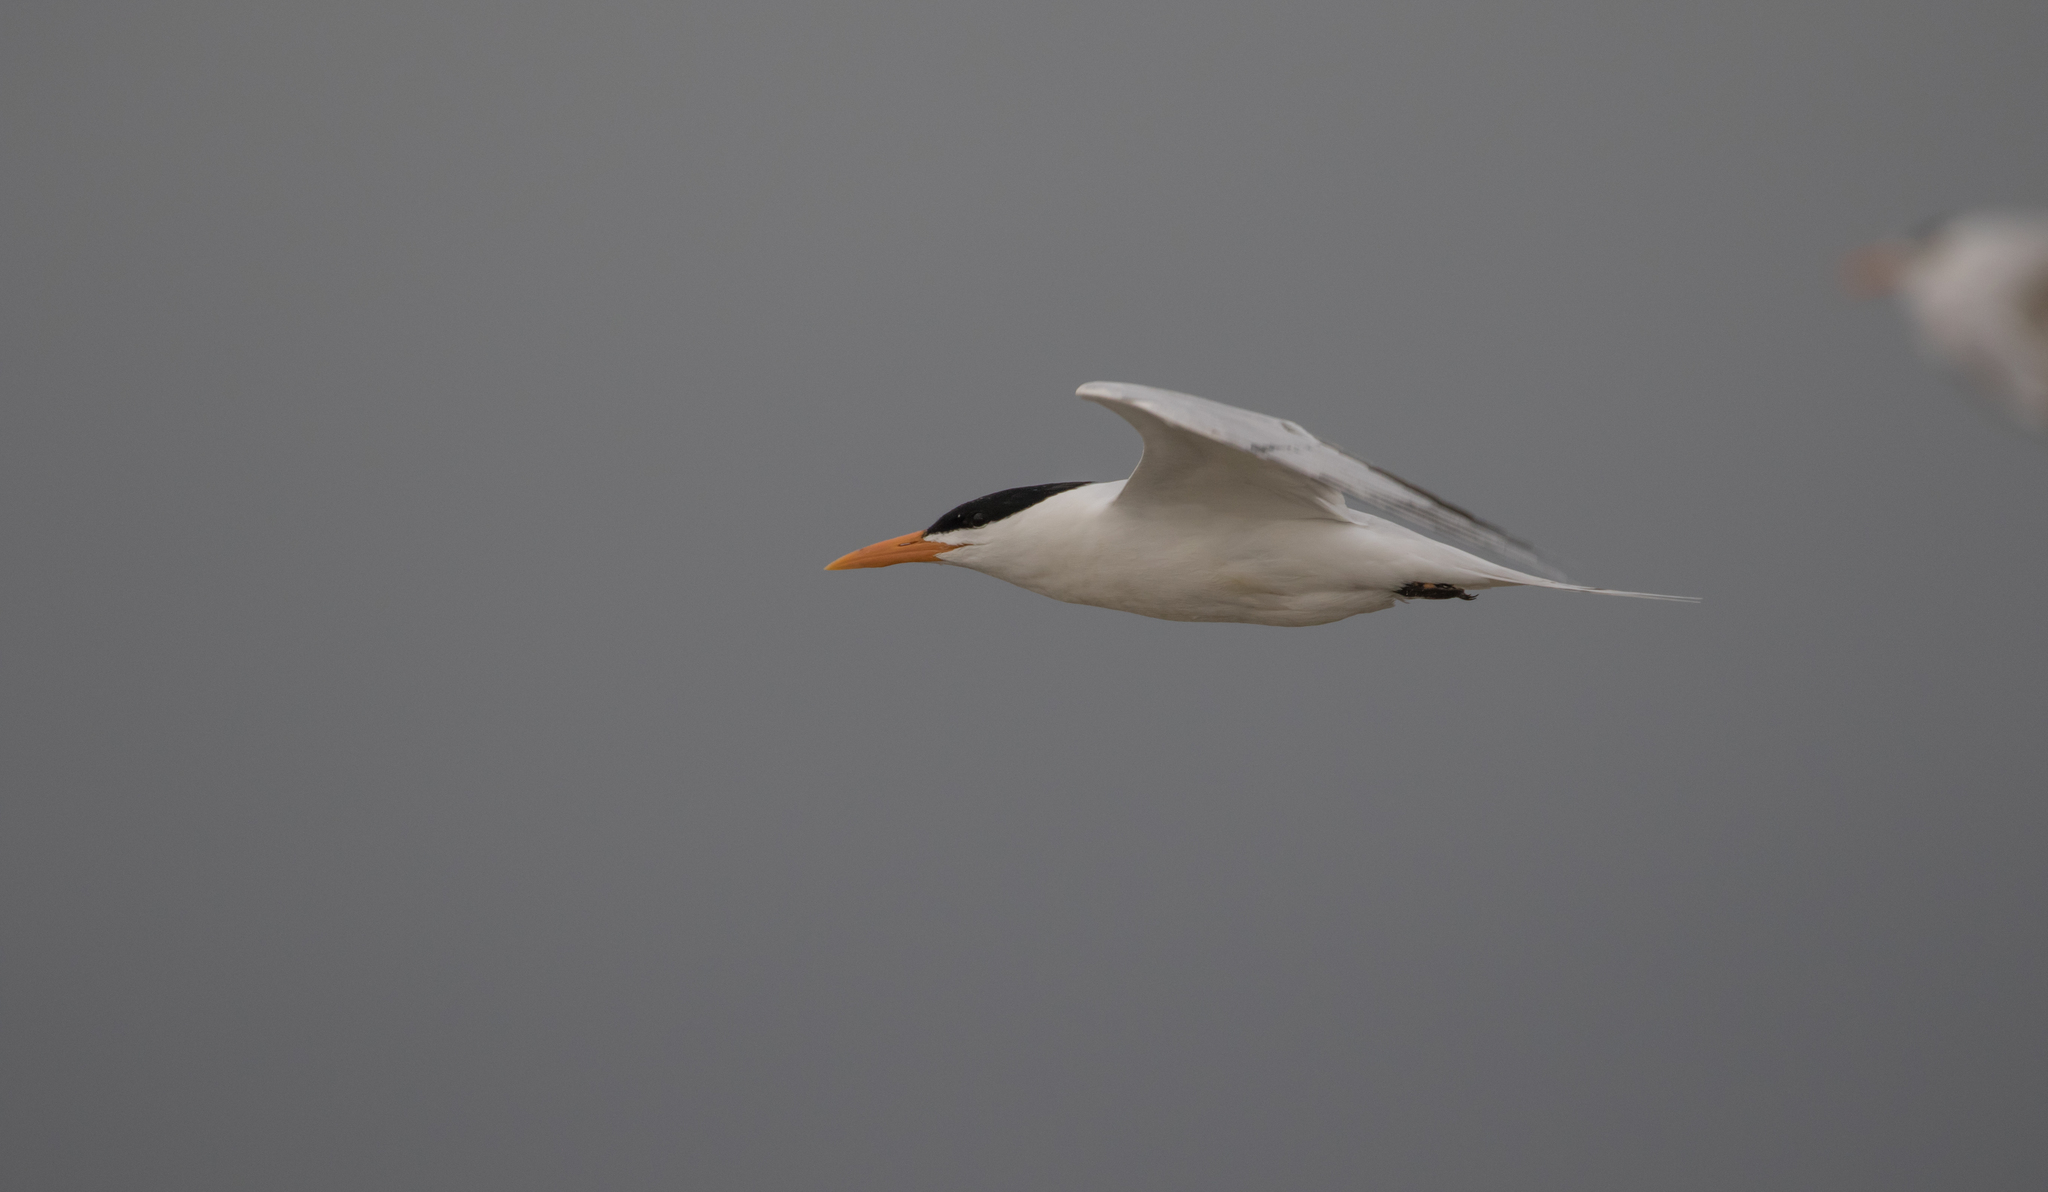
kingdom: Animalia
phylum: Chordata
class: Aves
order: Charadriiformes
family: Laridae
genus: Thalasseus
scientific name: Thalasseus maximus
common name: Royal tern
